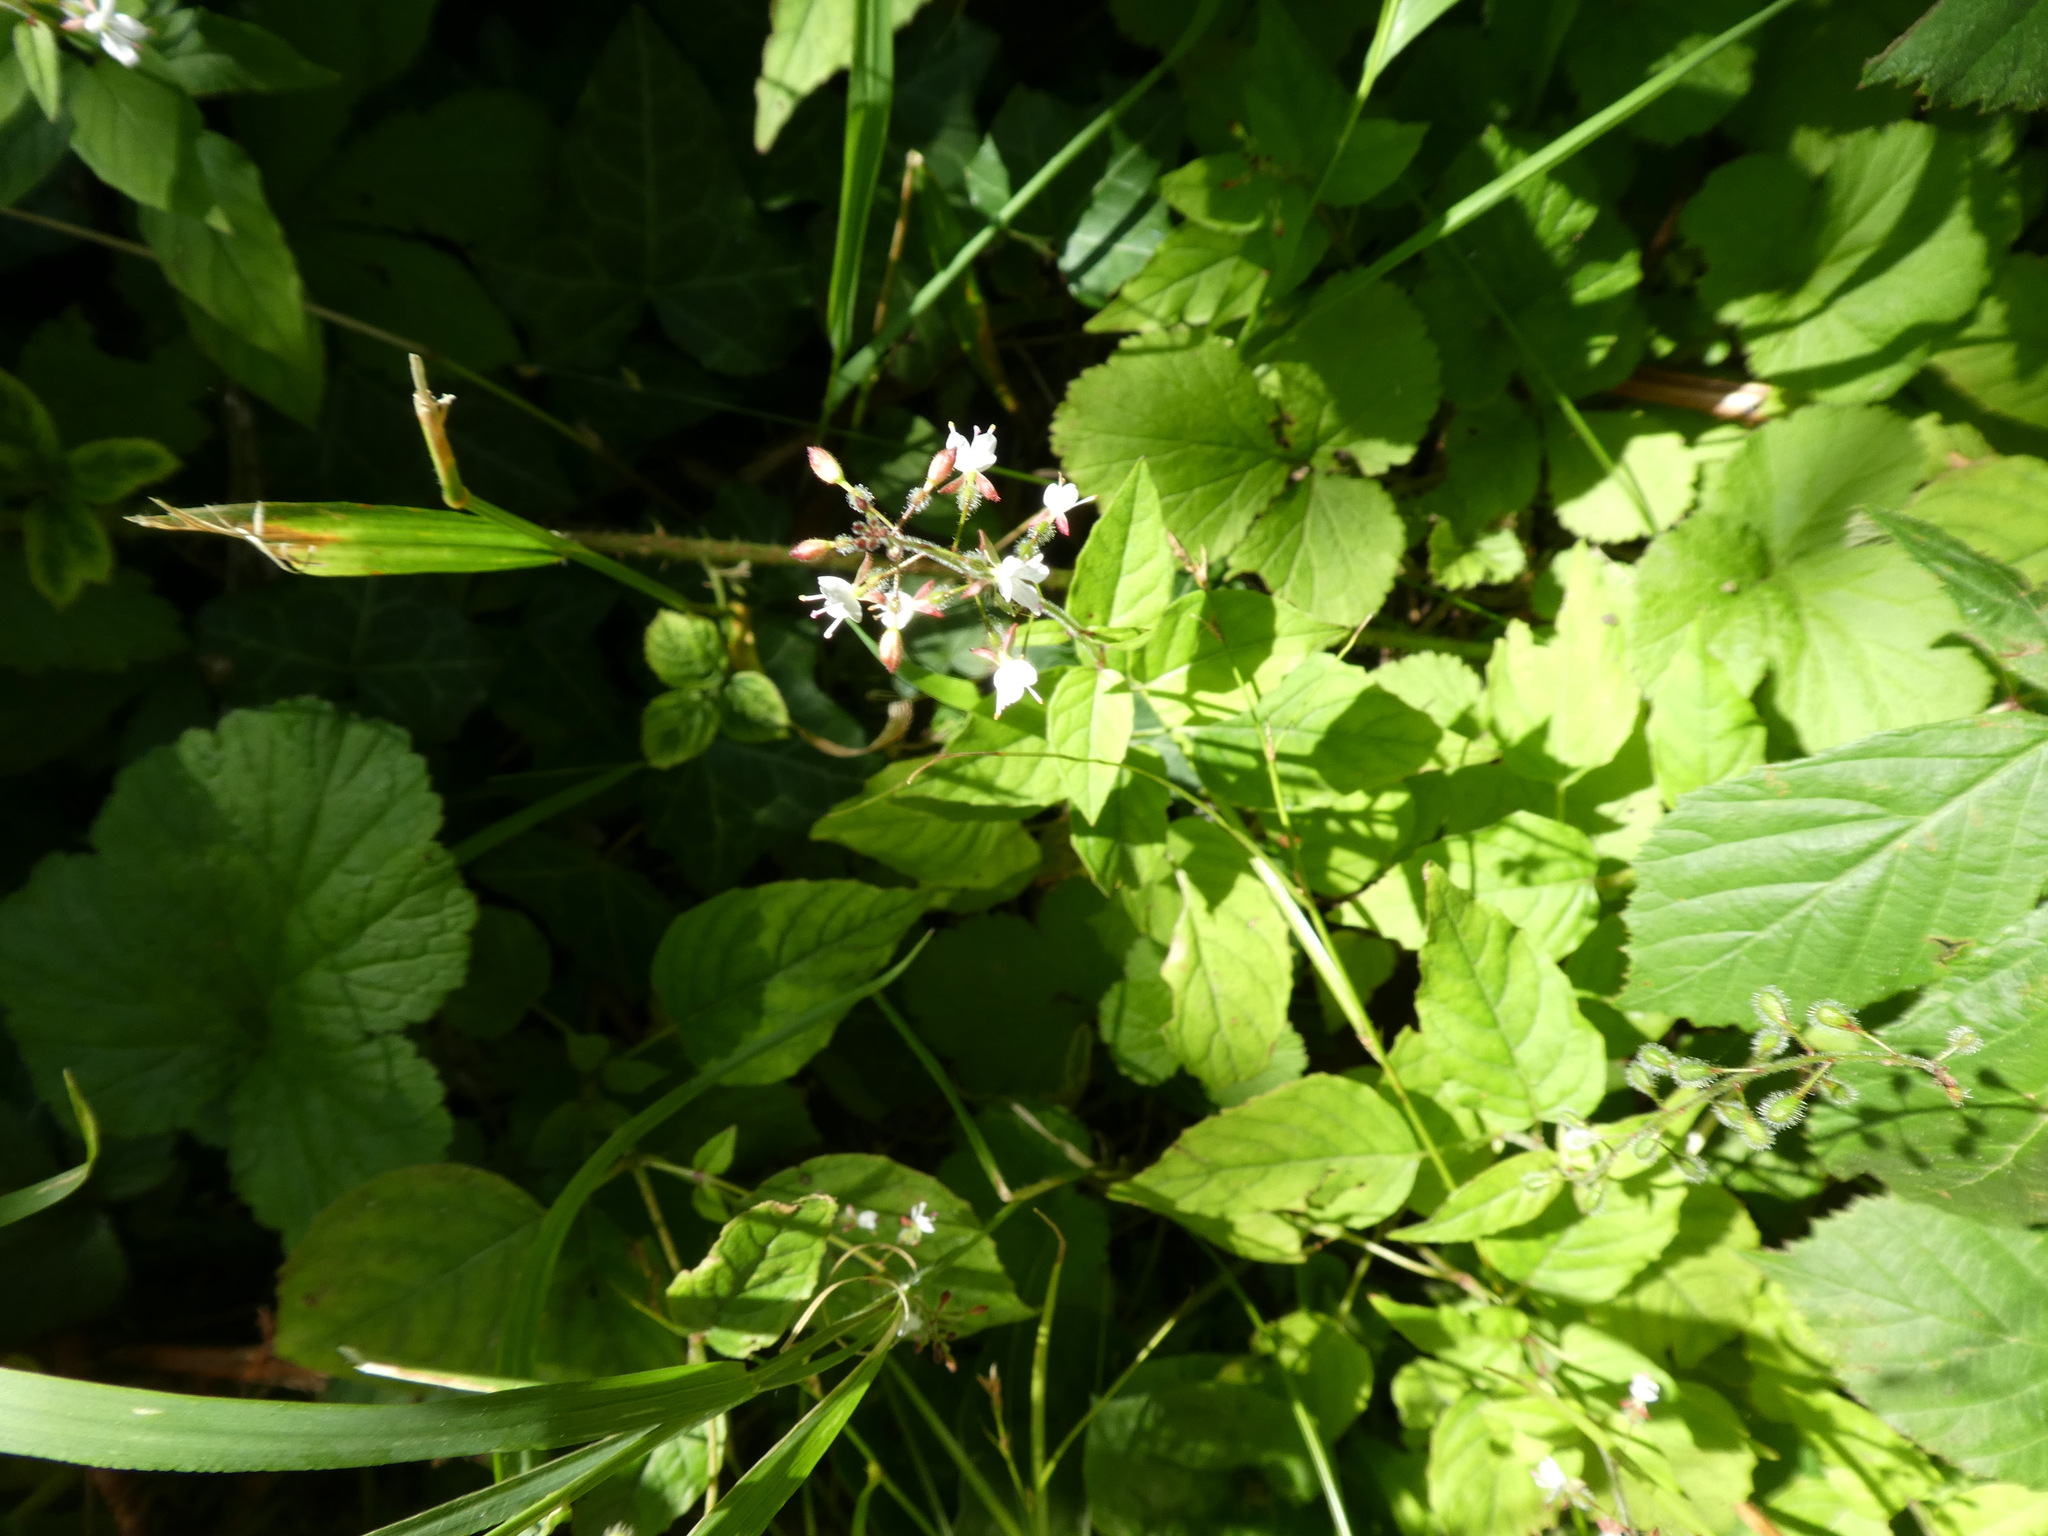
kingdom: Plantae
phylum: Tracheophyta
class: Magnoliopsida
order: Myrtales
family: Onagraceae
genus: Circaea
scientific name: Circaea lutetiana
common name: Enchanter's-nightshade
